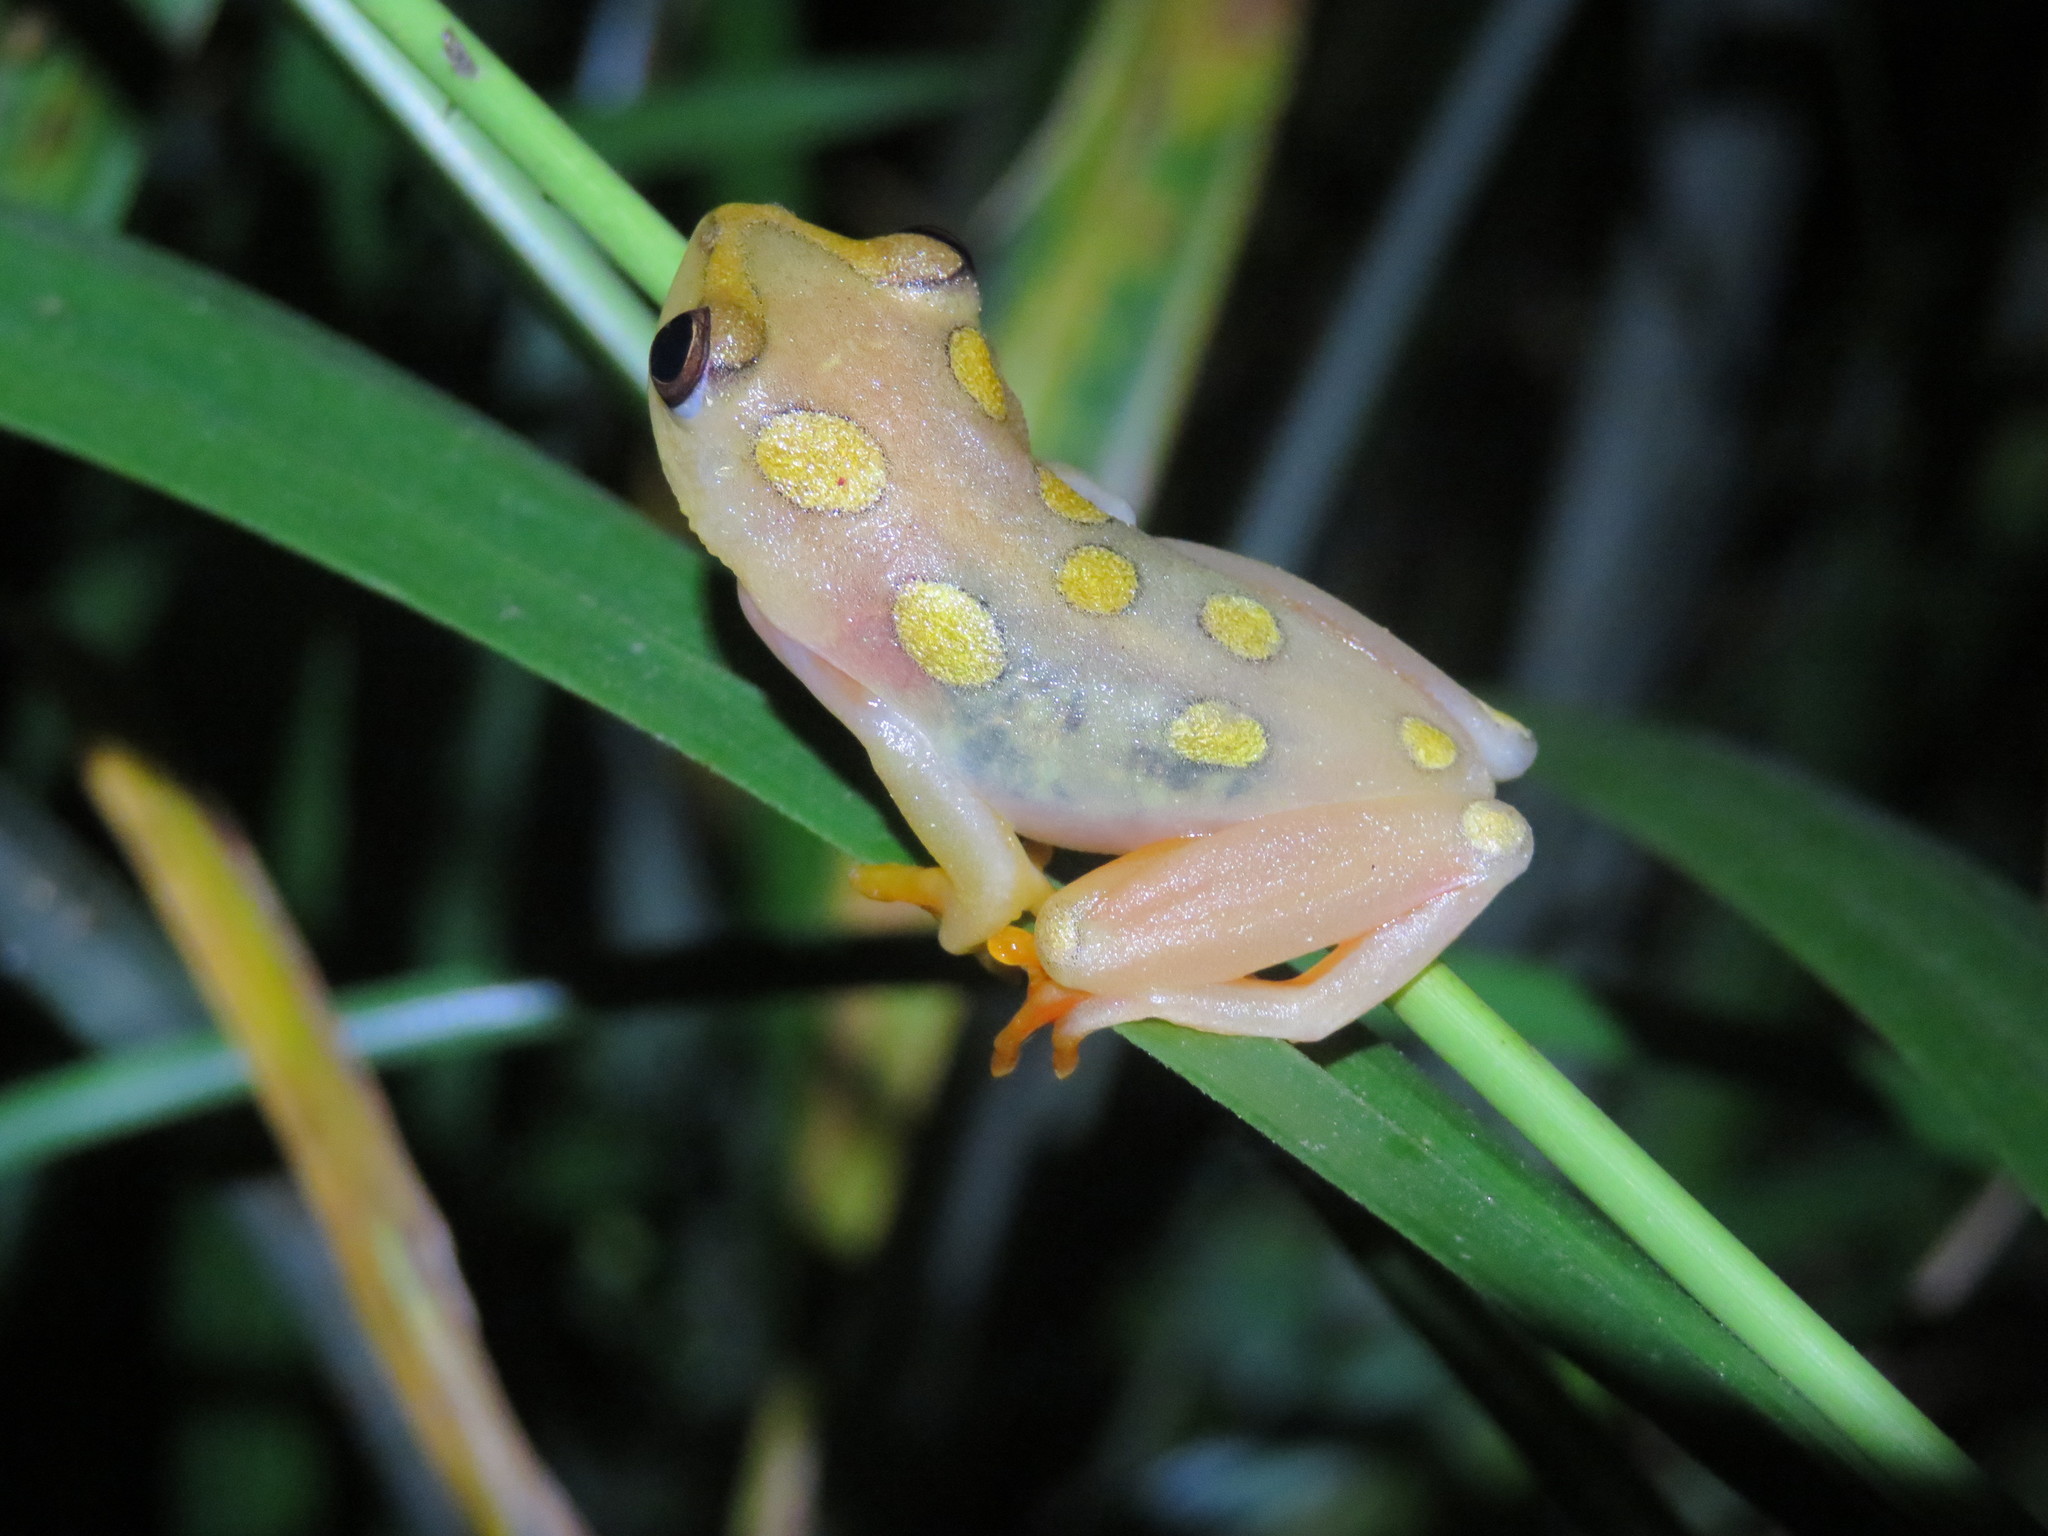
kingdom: Animalia
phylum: Chordata
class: Amphibia
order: Anura
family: Hyperoliidae
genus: Hyperolius
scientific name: Hyperolius argus
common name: Argus reed frog
